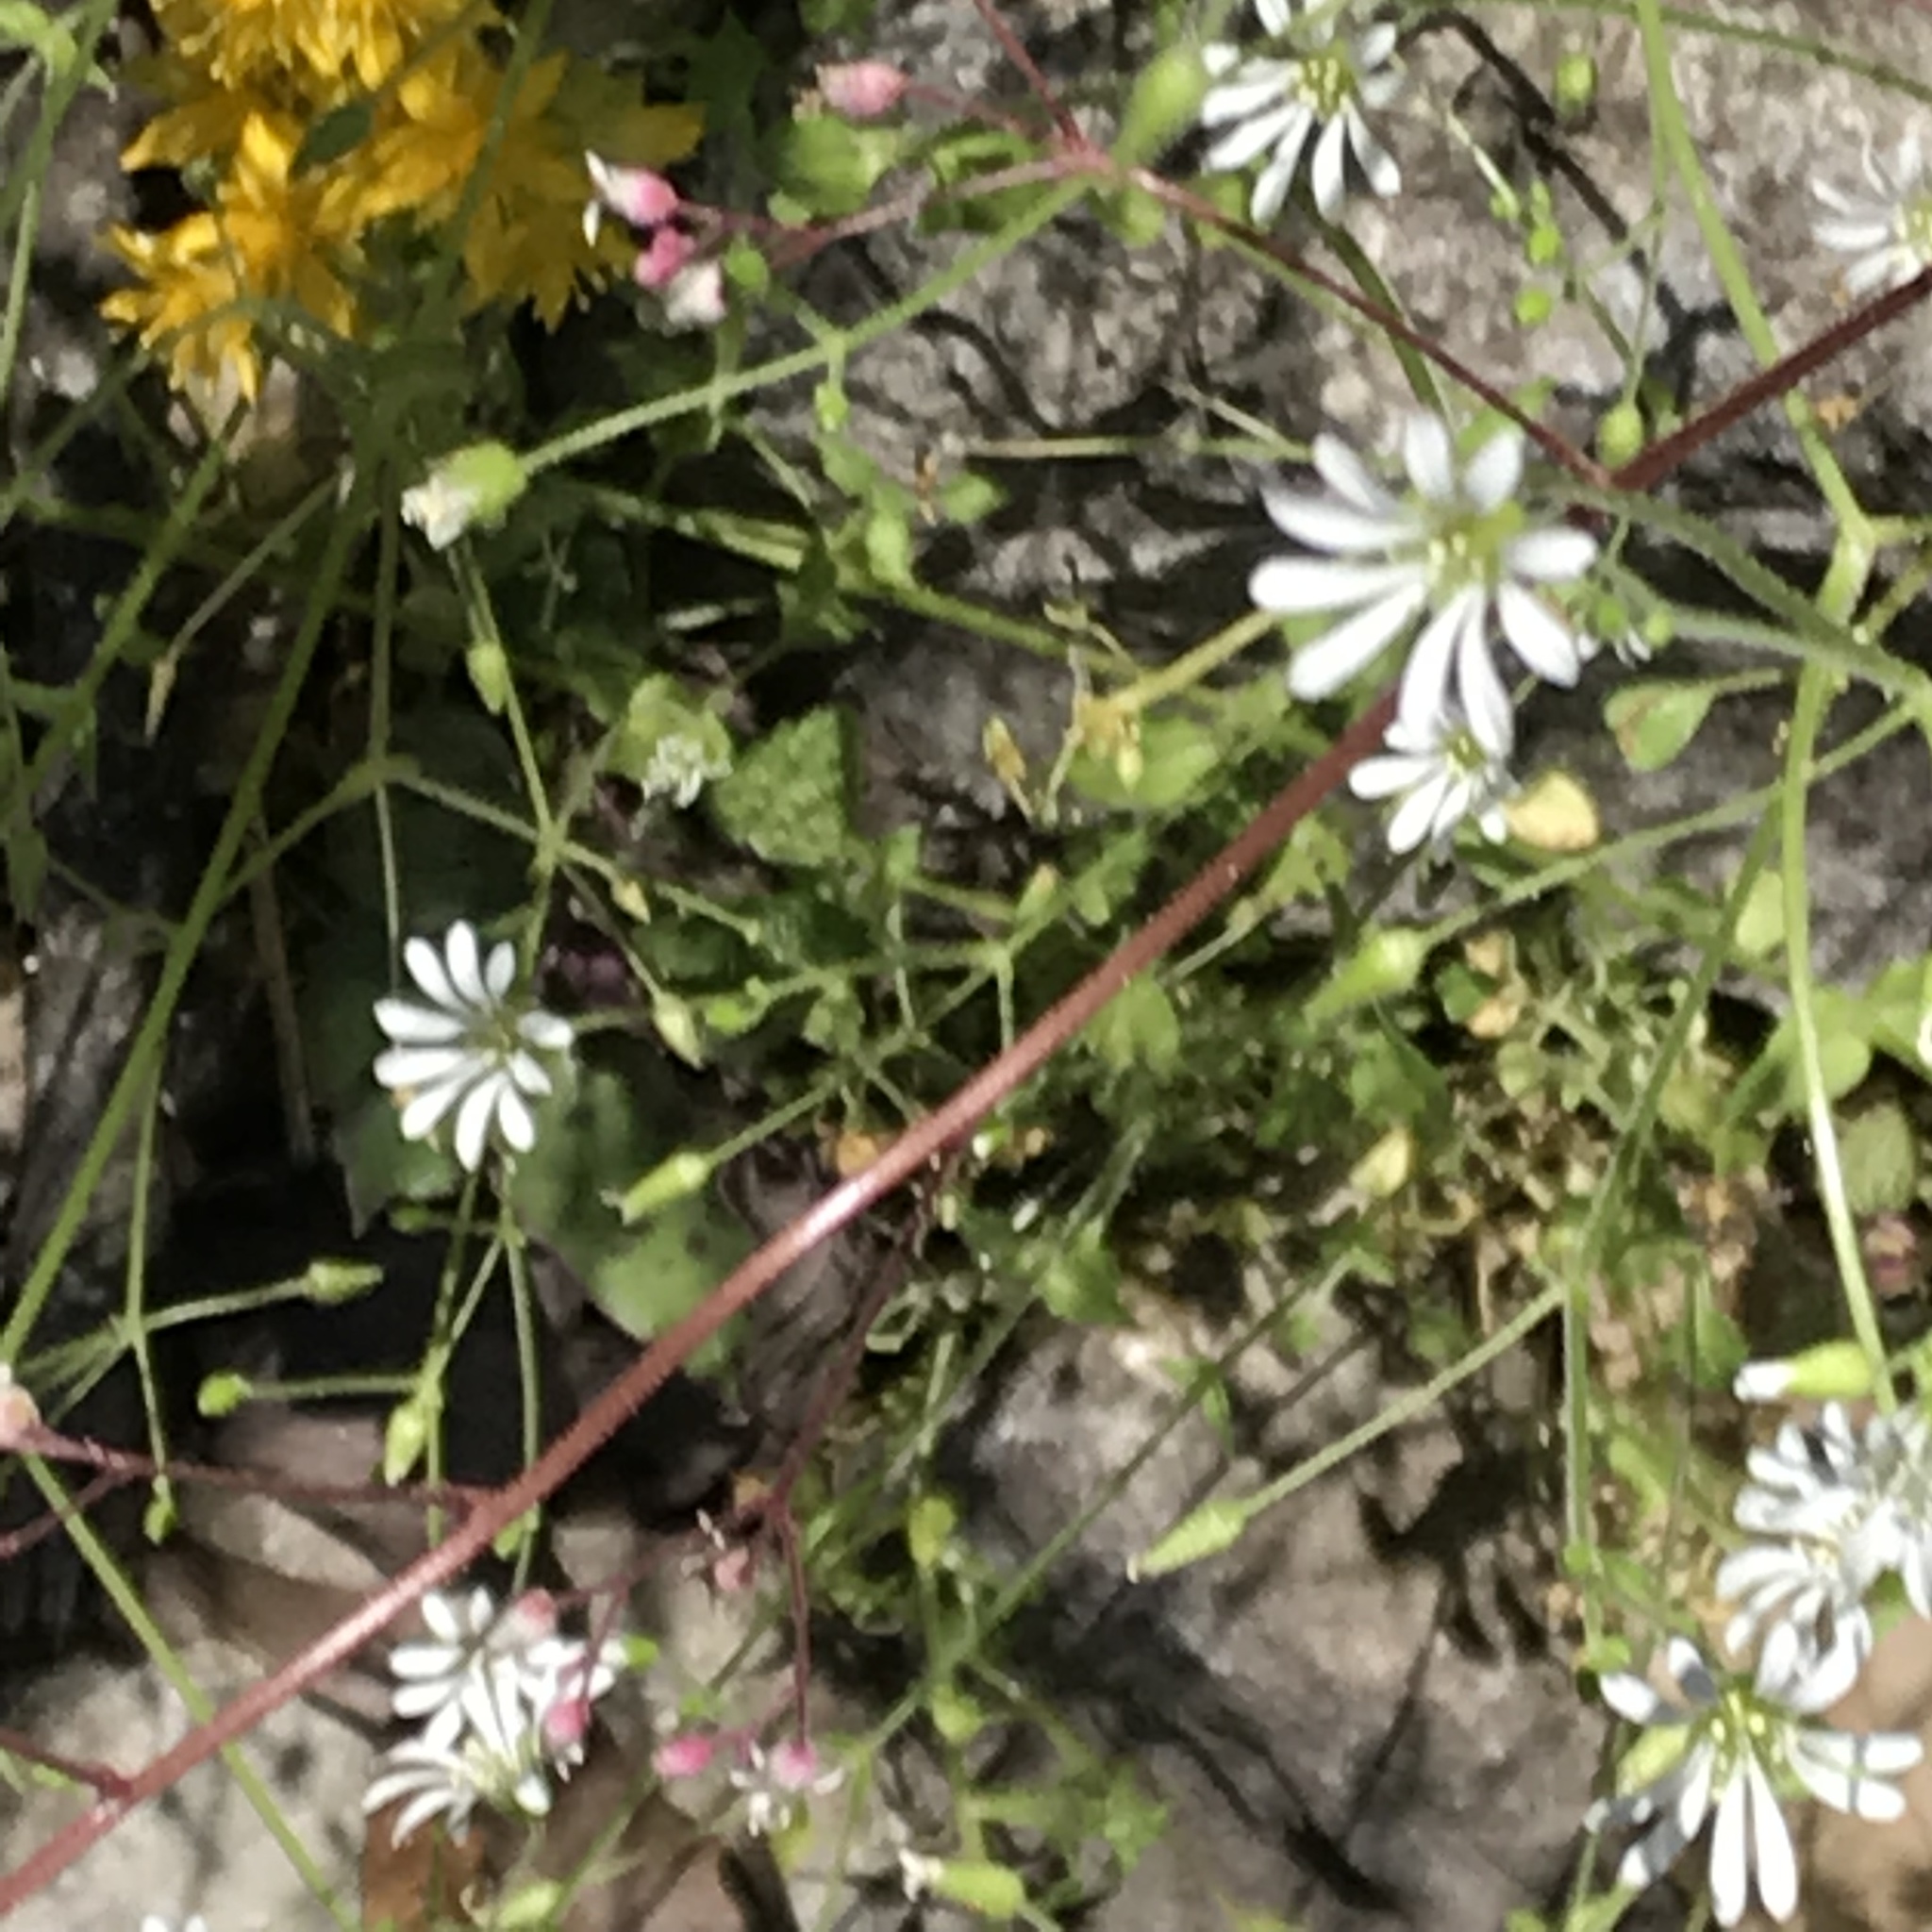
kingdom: Plantae
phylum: Tracheophyta
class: Magnoliopsida
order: Caryophyllales
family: Caryophyllaceae
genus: Stellaria
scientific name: Stellaria cuspidata
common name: Mexican chickweed
